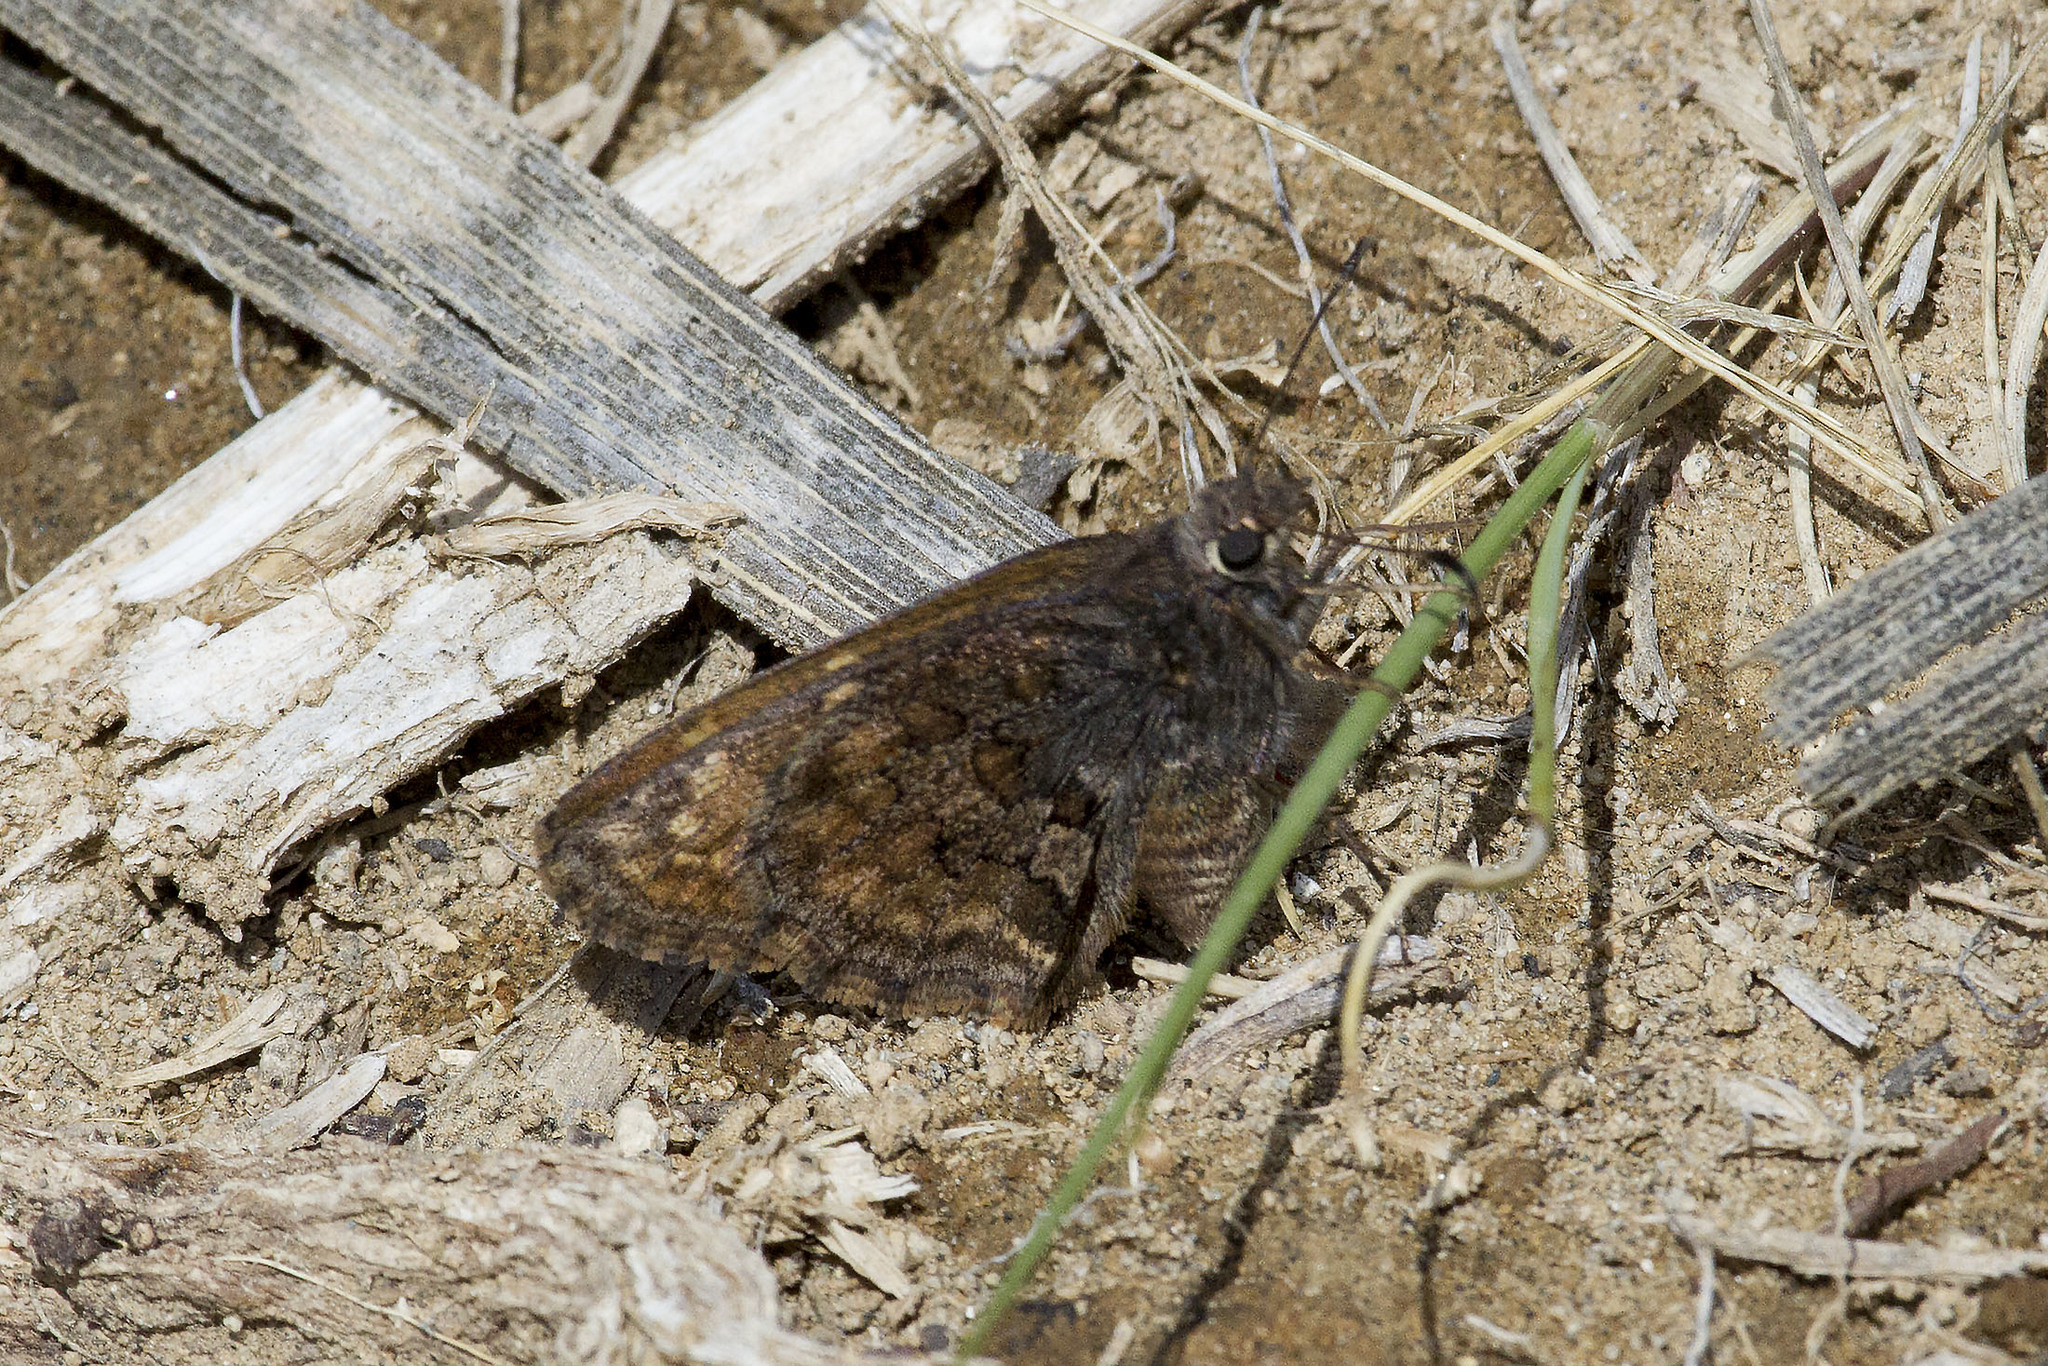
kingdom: Animalia
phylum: Arthropoda
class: Insecta
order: Lepidoptera
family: Hesperiidae
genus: Lobotractus
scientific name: Lobotractus
